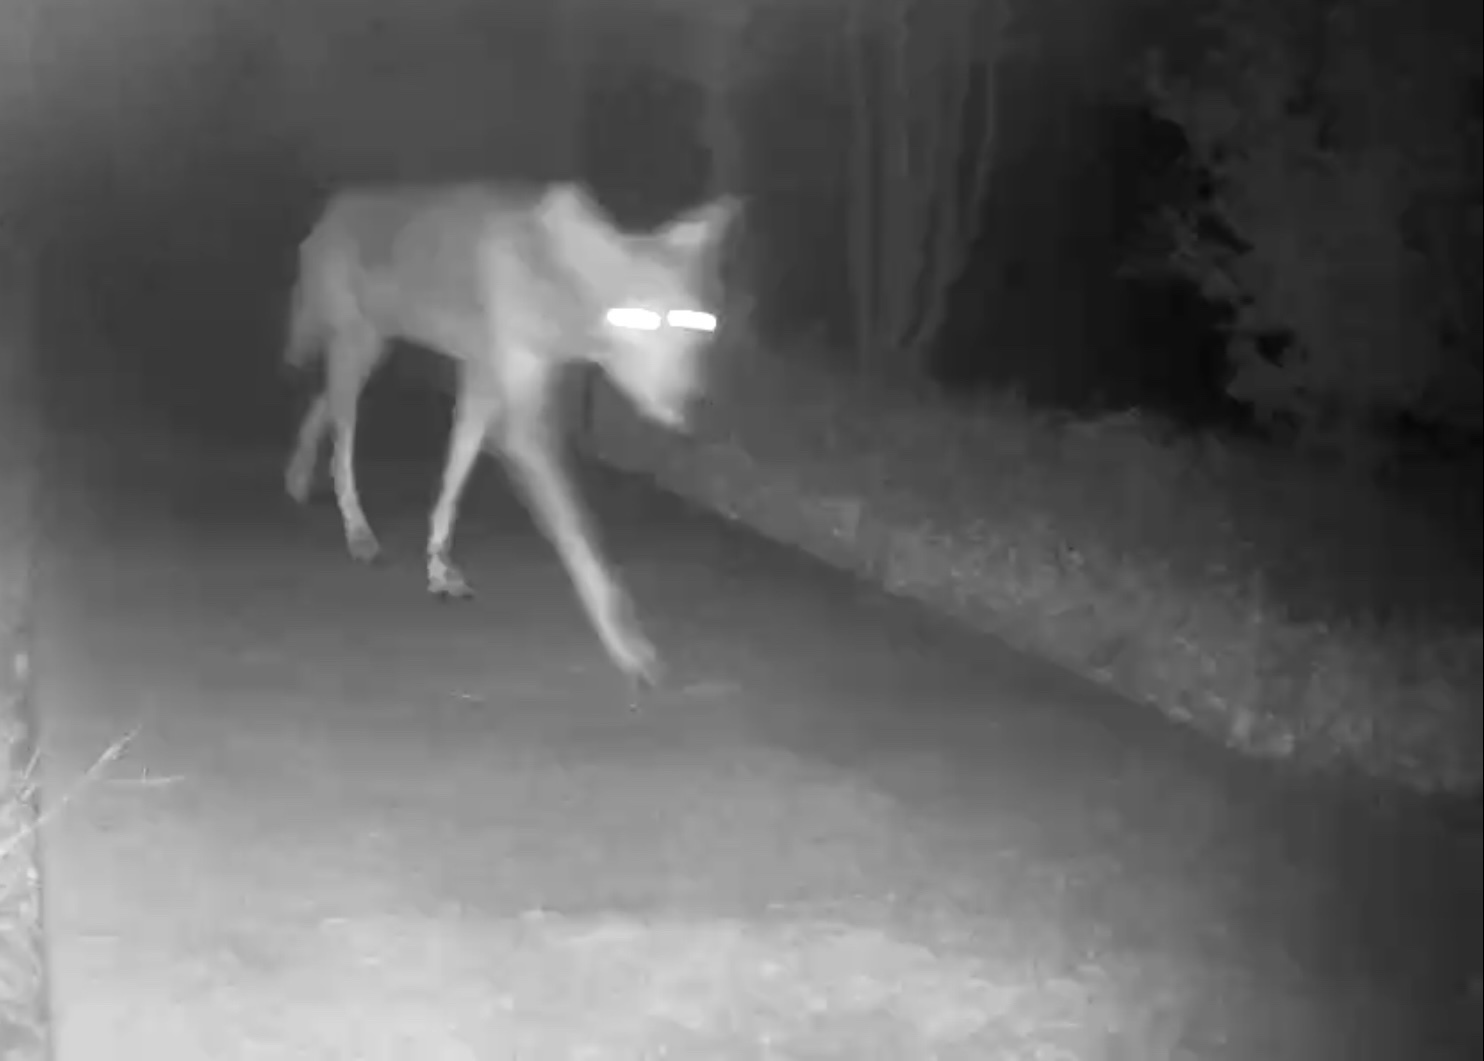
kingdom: Animalia
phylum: Chordata
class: Mammalia
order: Carnivora
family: Canidae
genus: Canis
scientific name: Canis latrans
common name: Coyote
